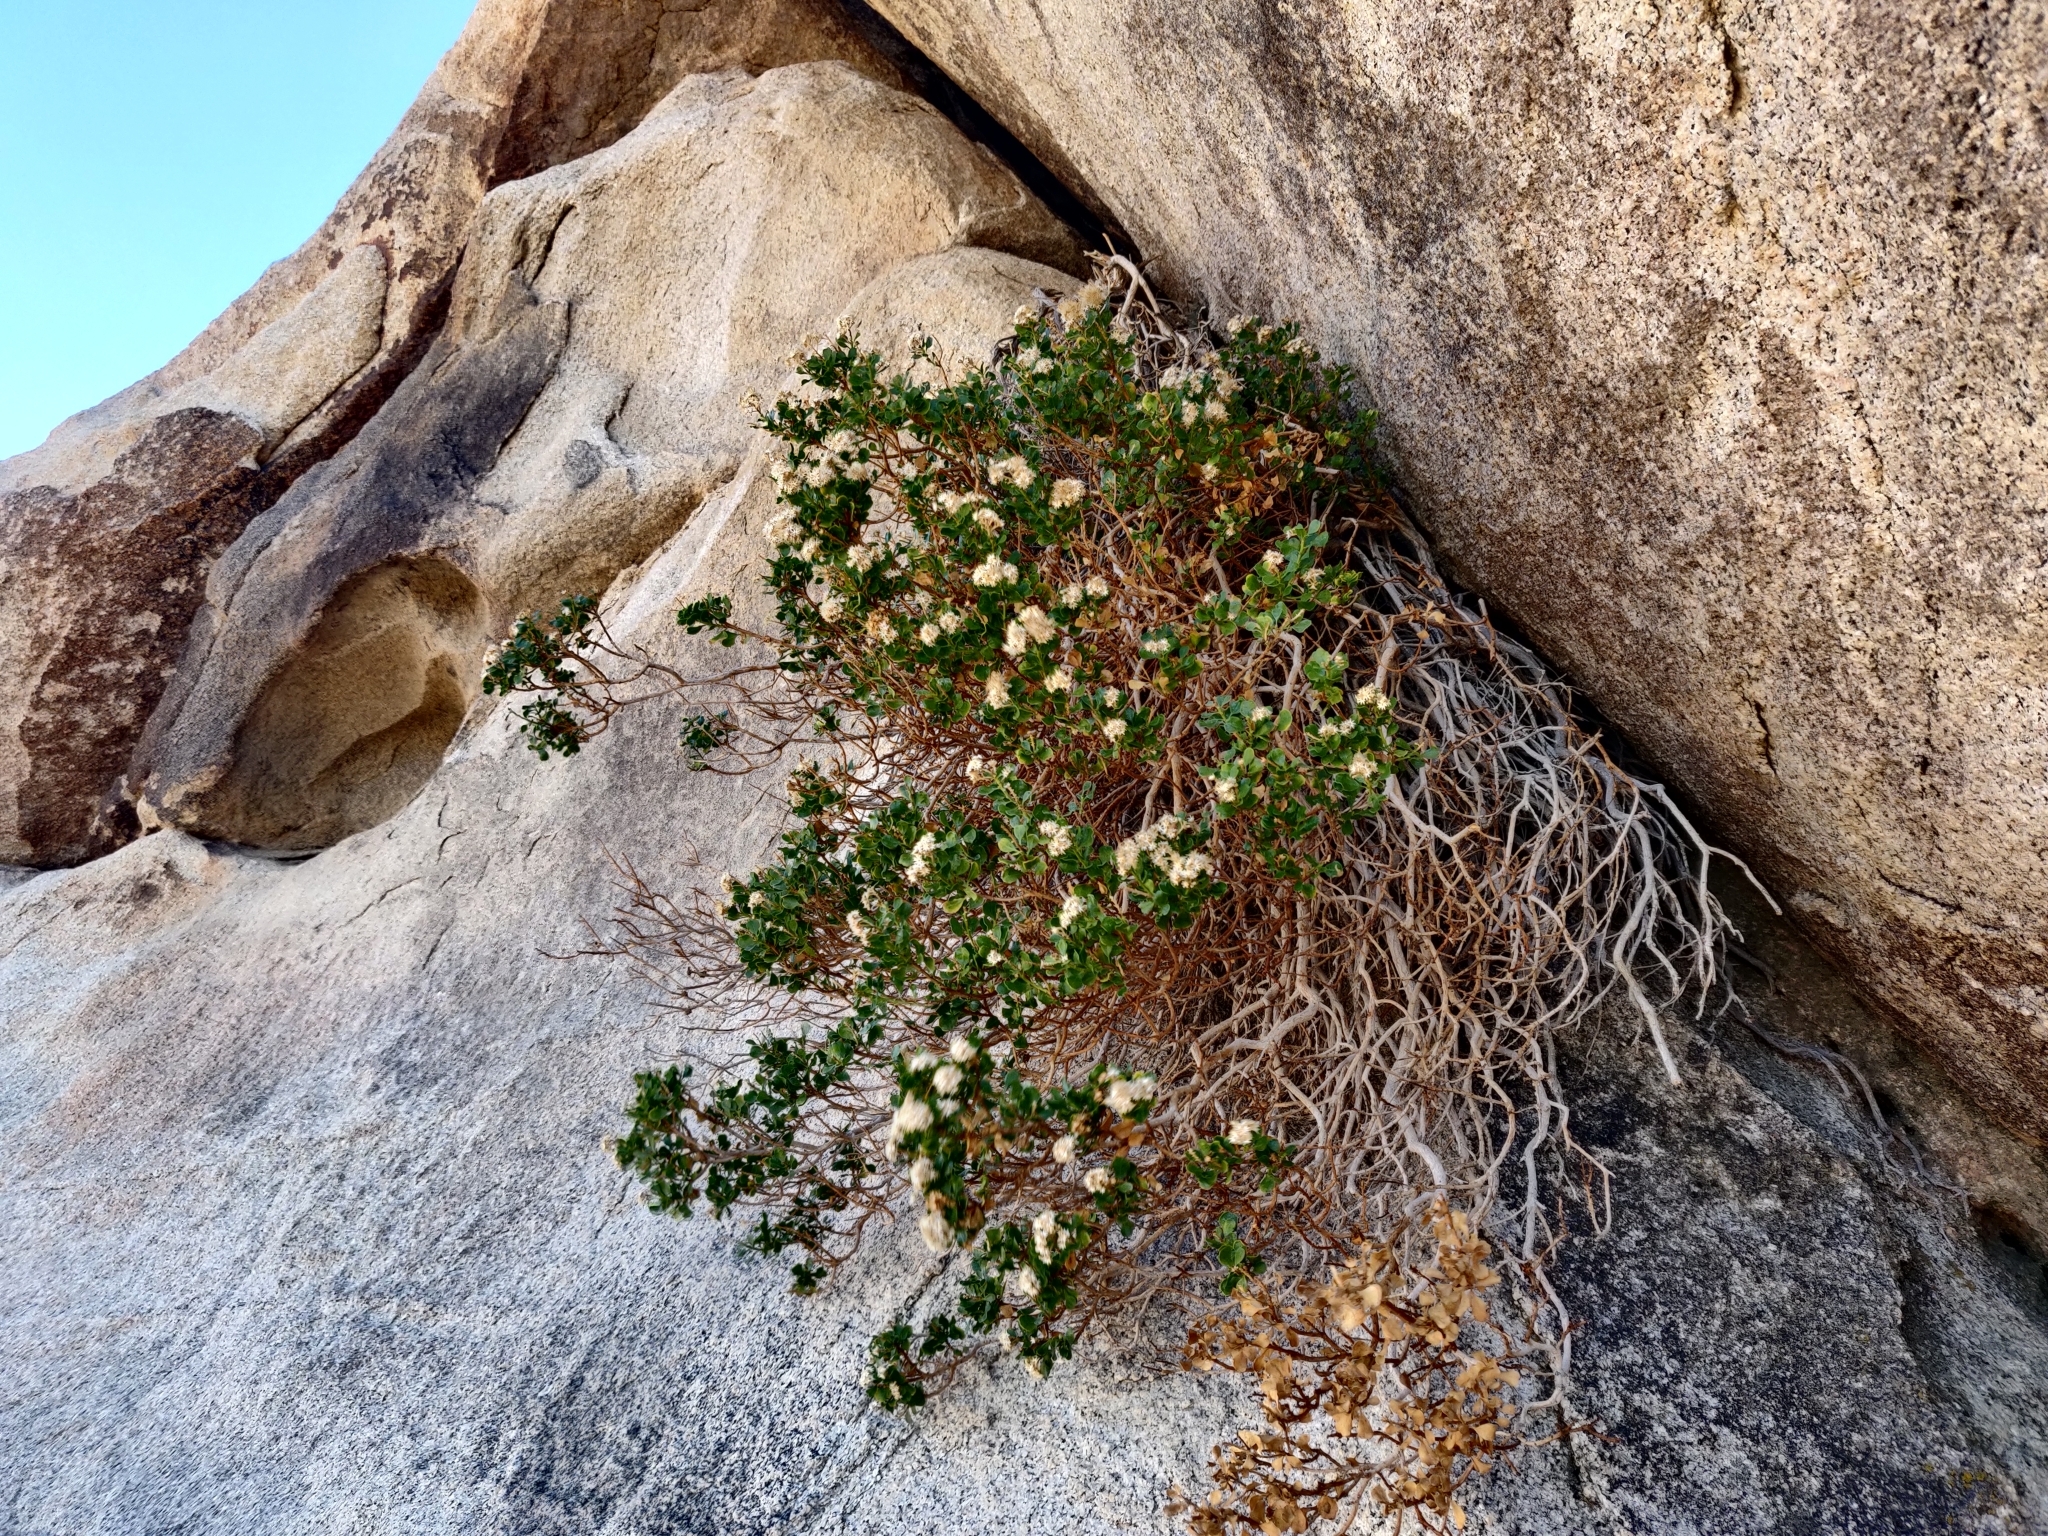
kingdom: Plantae
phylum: Tracheophyta
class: Magnoliopsida
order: Asterales
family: Asteraceae
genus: Ericameria
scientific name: Ericameria cuneata
